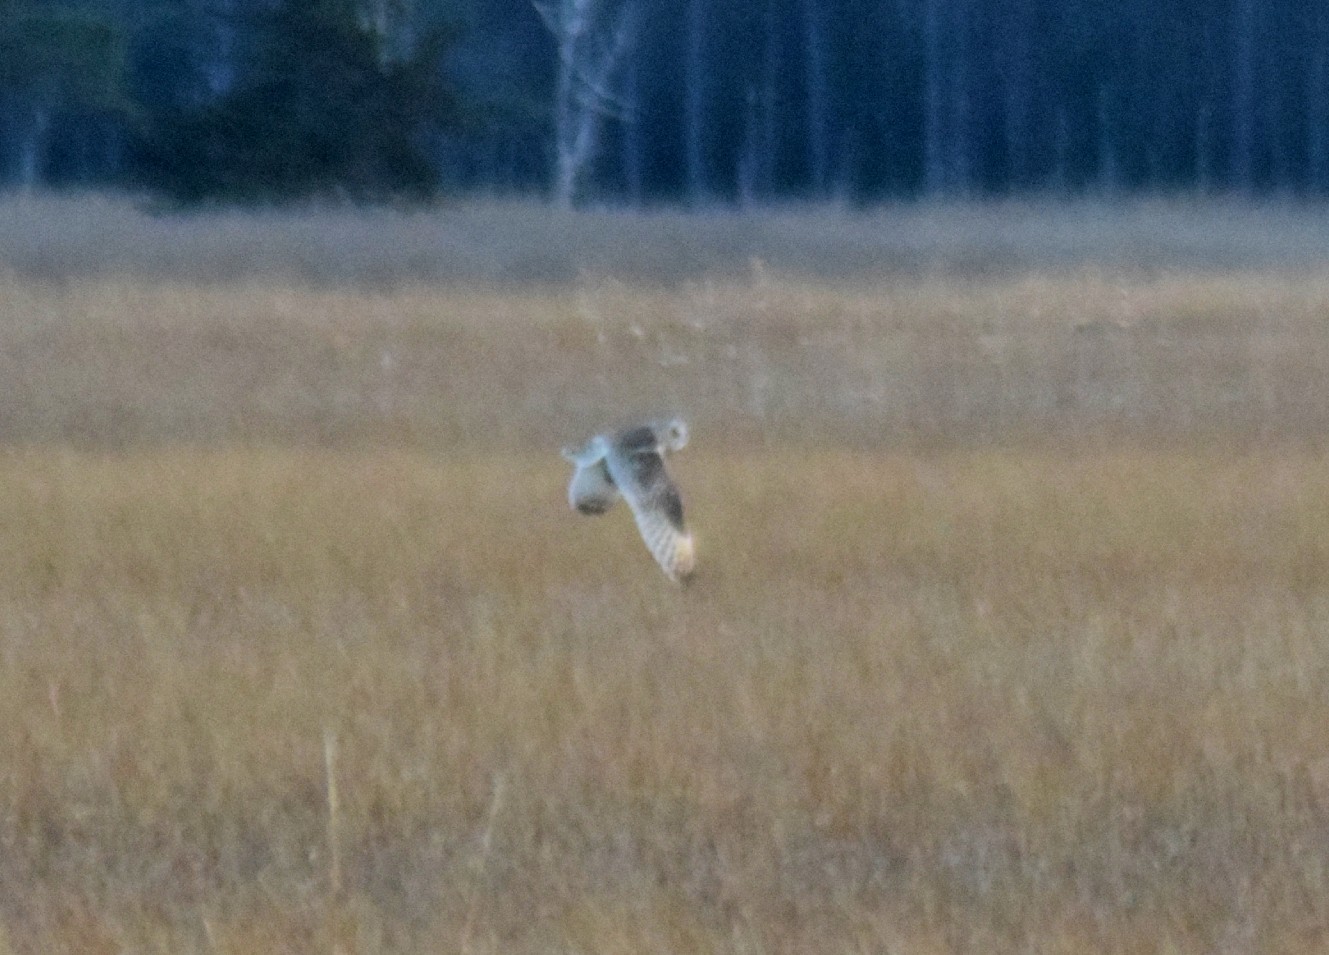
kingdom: Animalia
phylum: Chordata
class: Aves
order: Strigiformes
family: Strigidae
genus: Asio
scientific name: Asio flammeus
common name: Short-eared owl
